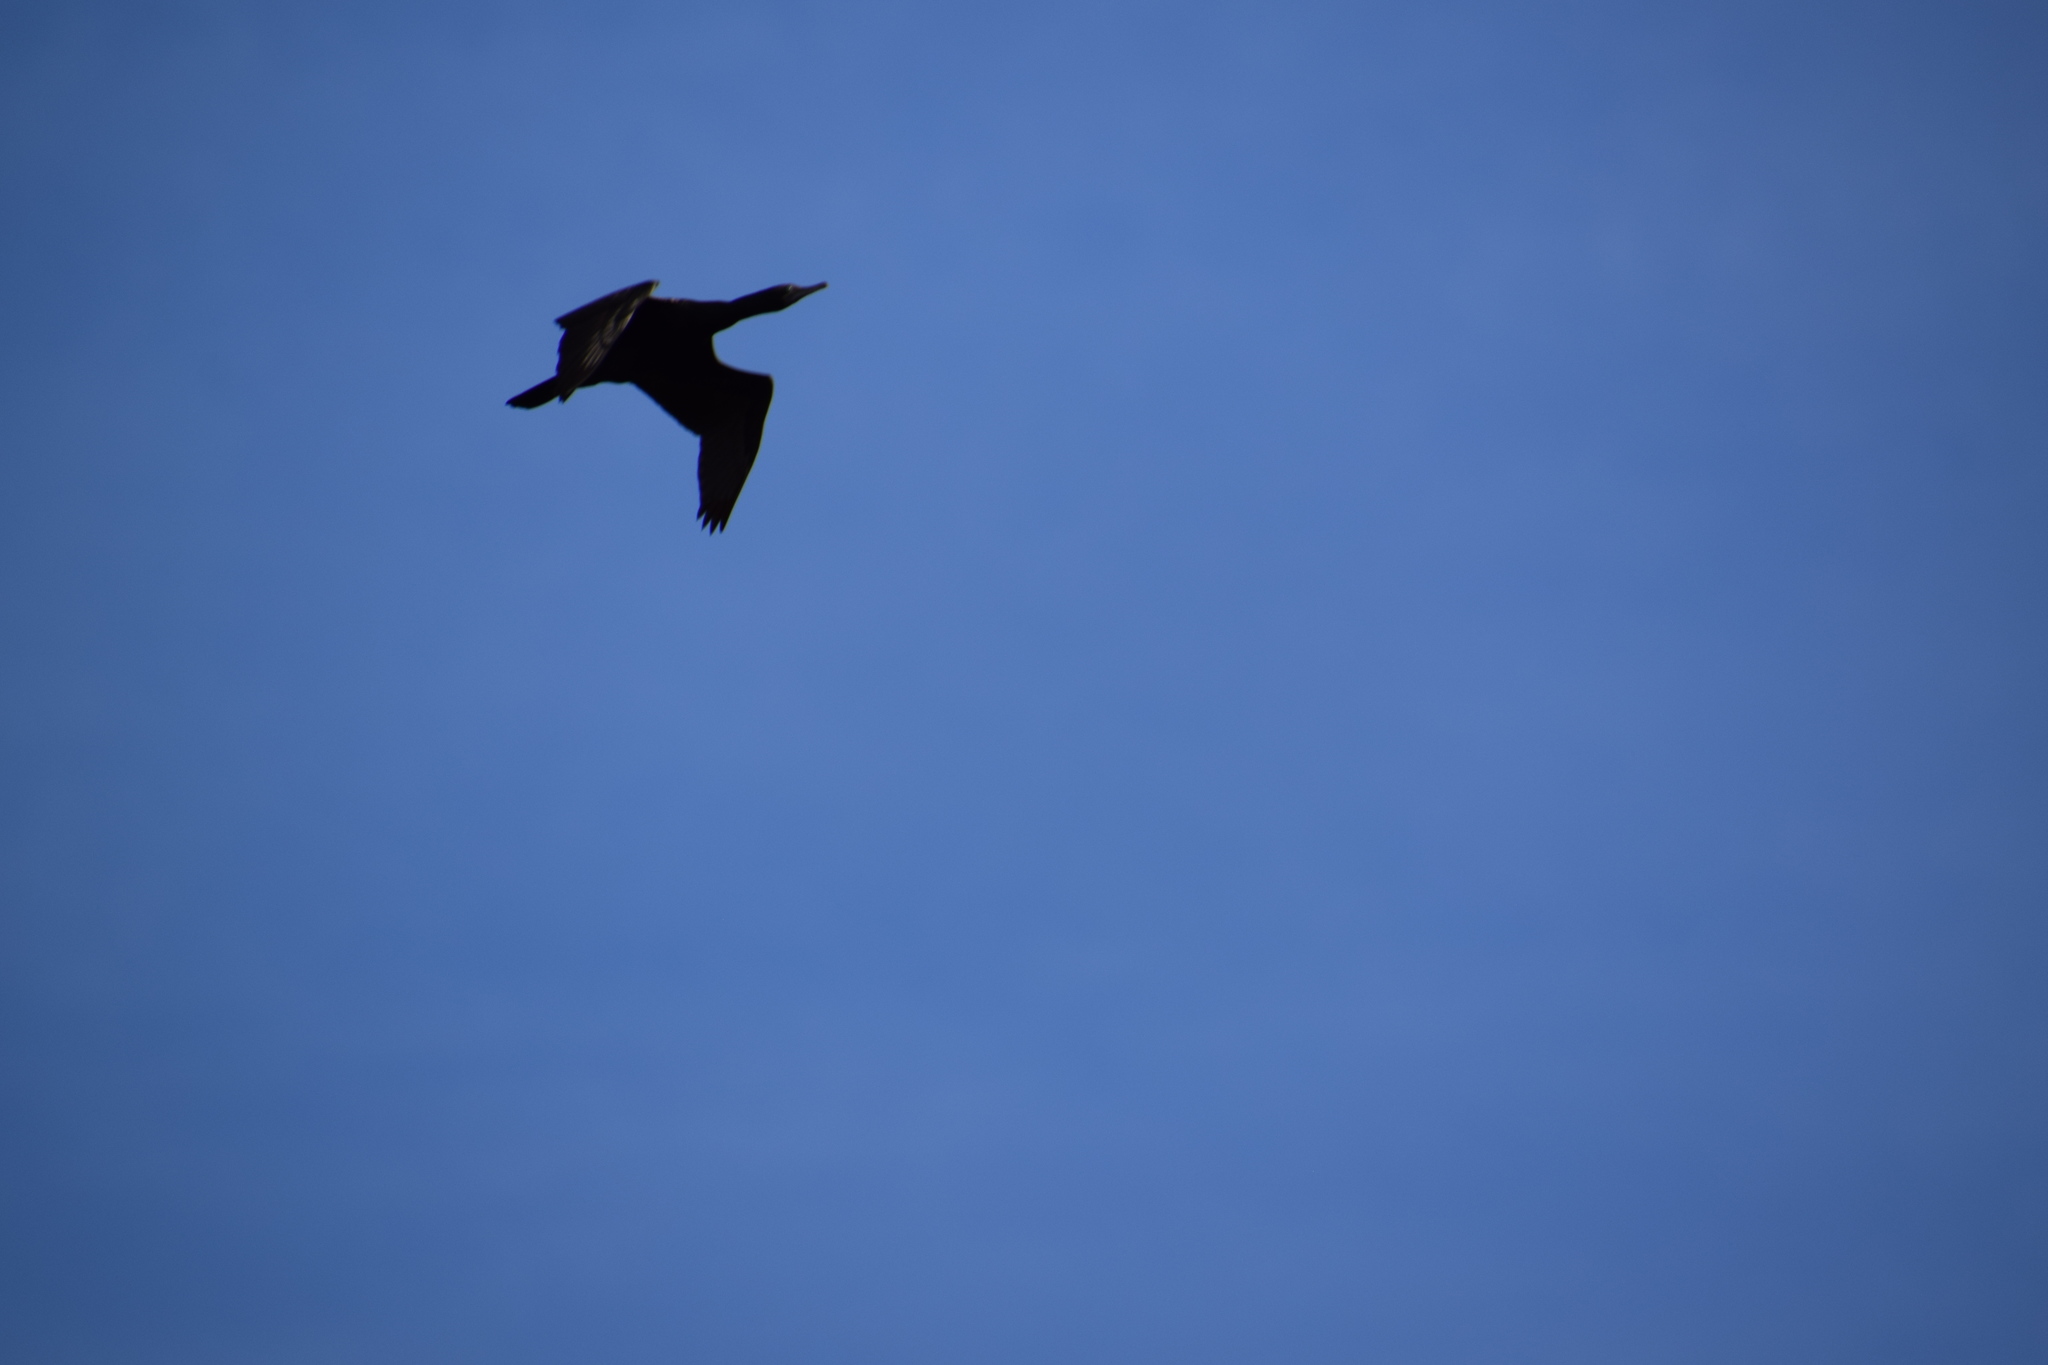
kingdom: Animalia
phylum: Chordata
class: Aves
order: Suliformes
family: Phalacrocoracidae
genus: Phalacrocorax
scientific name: Phalacrocorax sulcirostris
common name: Little black cormorant
